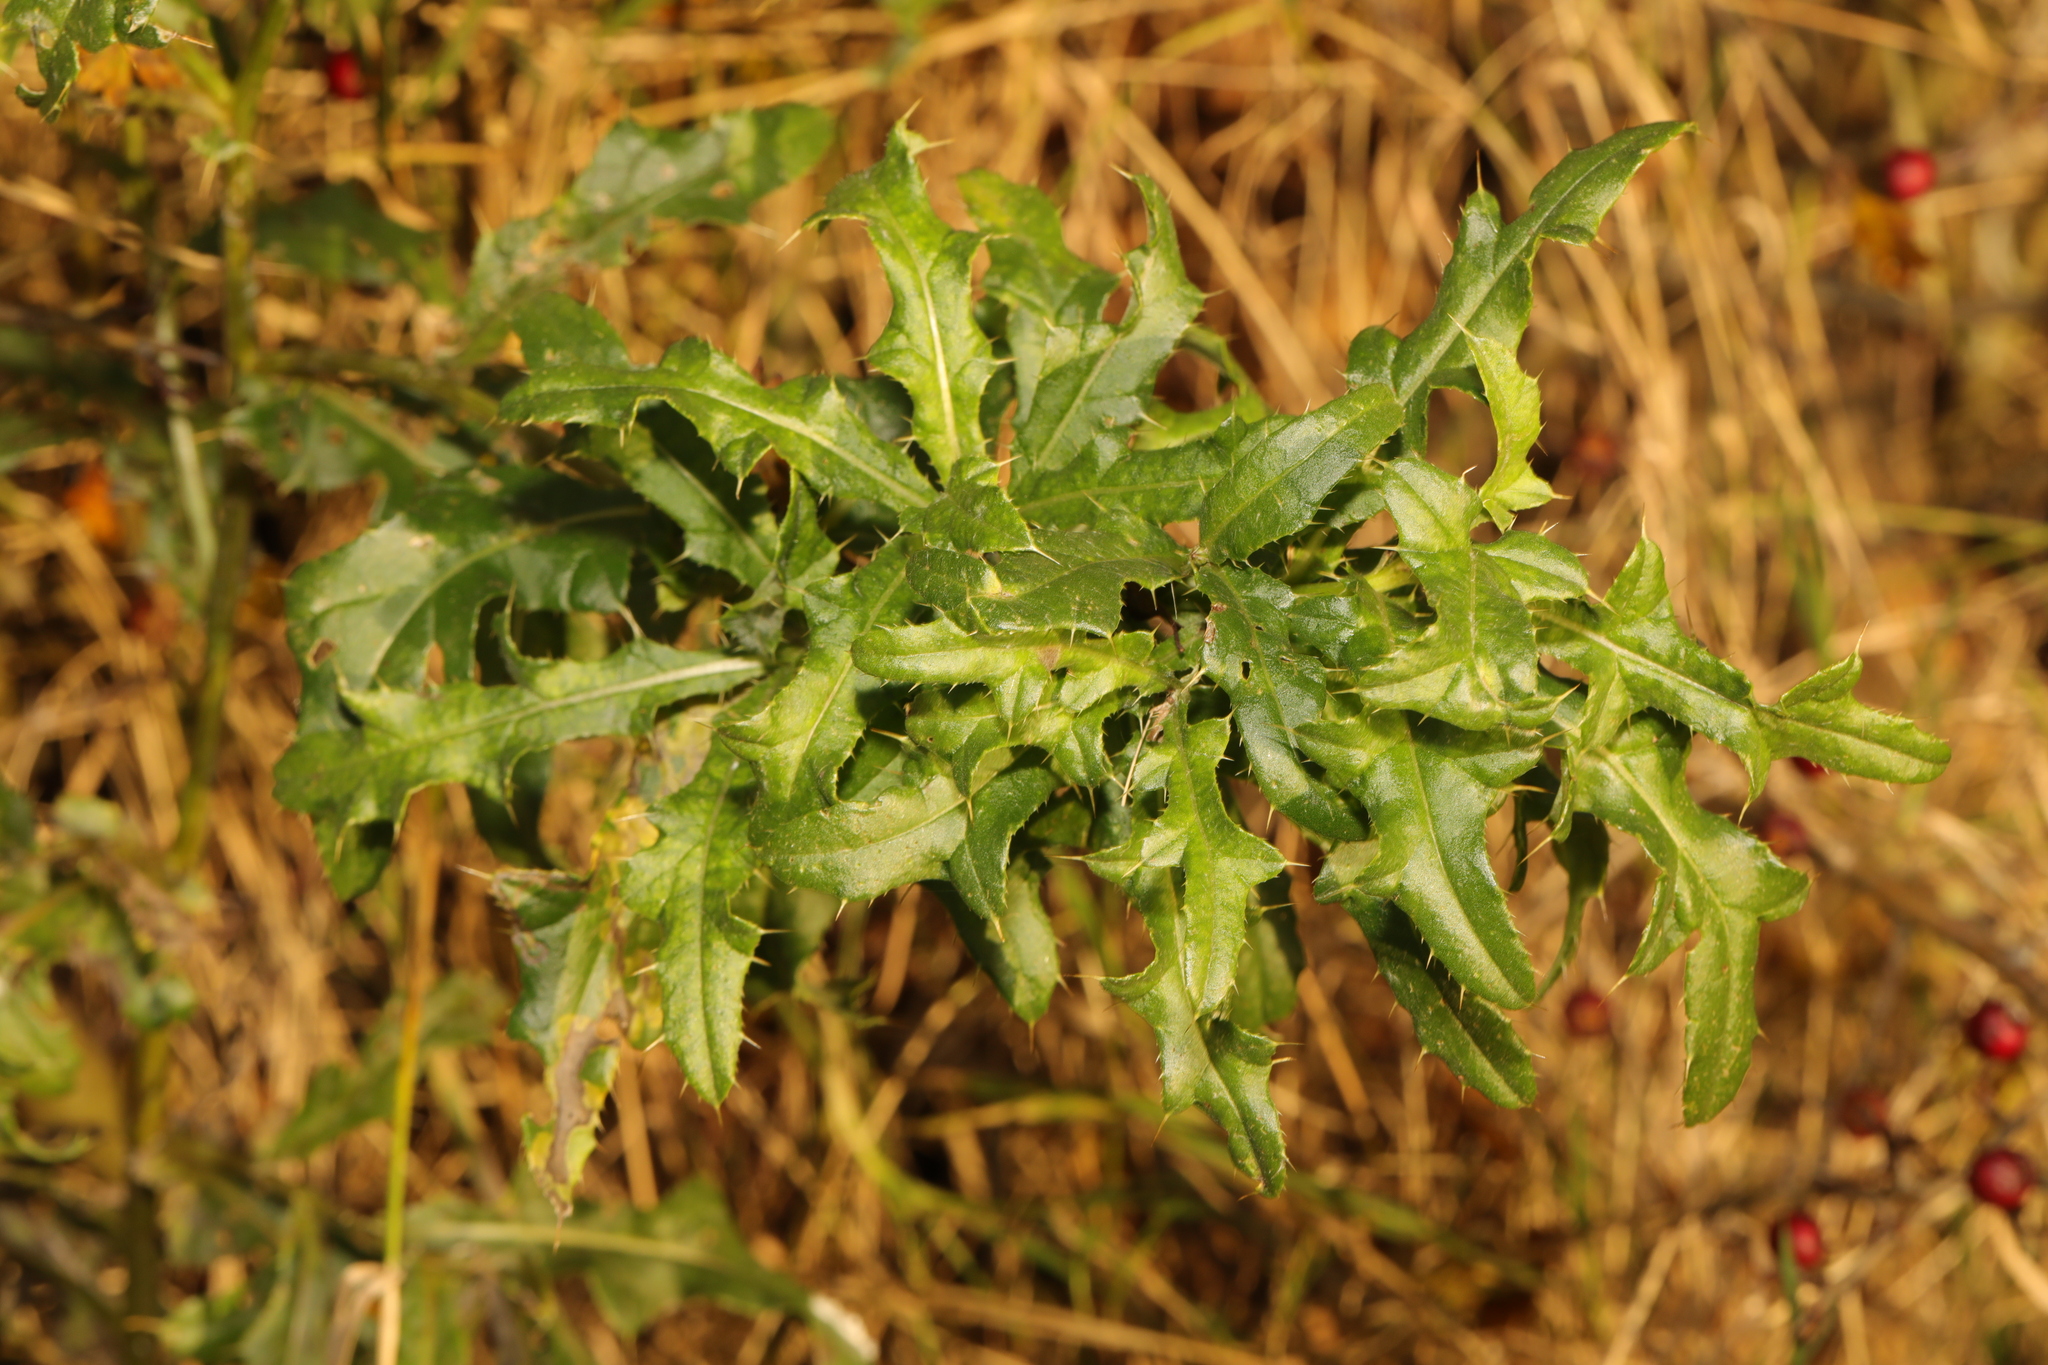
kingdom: Plantae
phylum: Tracheophyta
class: Magnoliopsida
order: Asterales
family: Asteraceae
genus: Cirsium
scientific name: Cirsium arvense
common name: Creeping thistle
